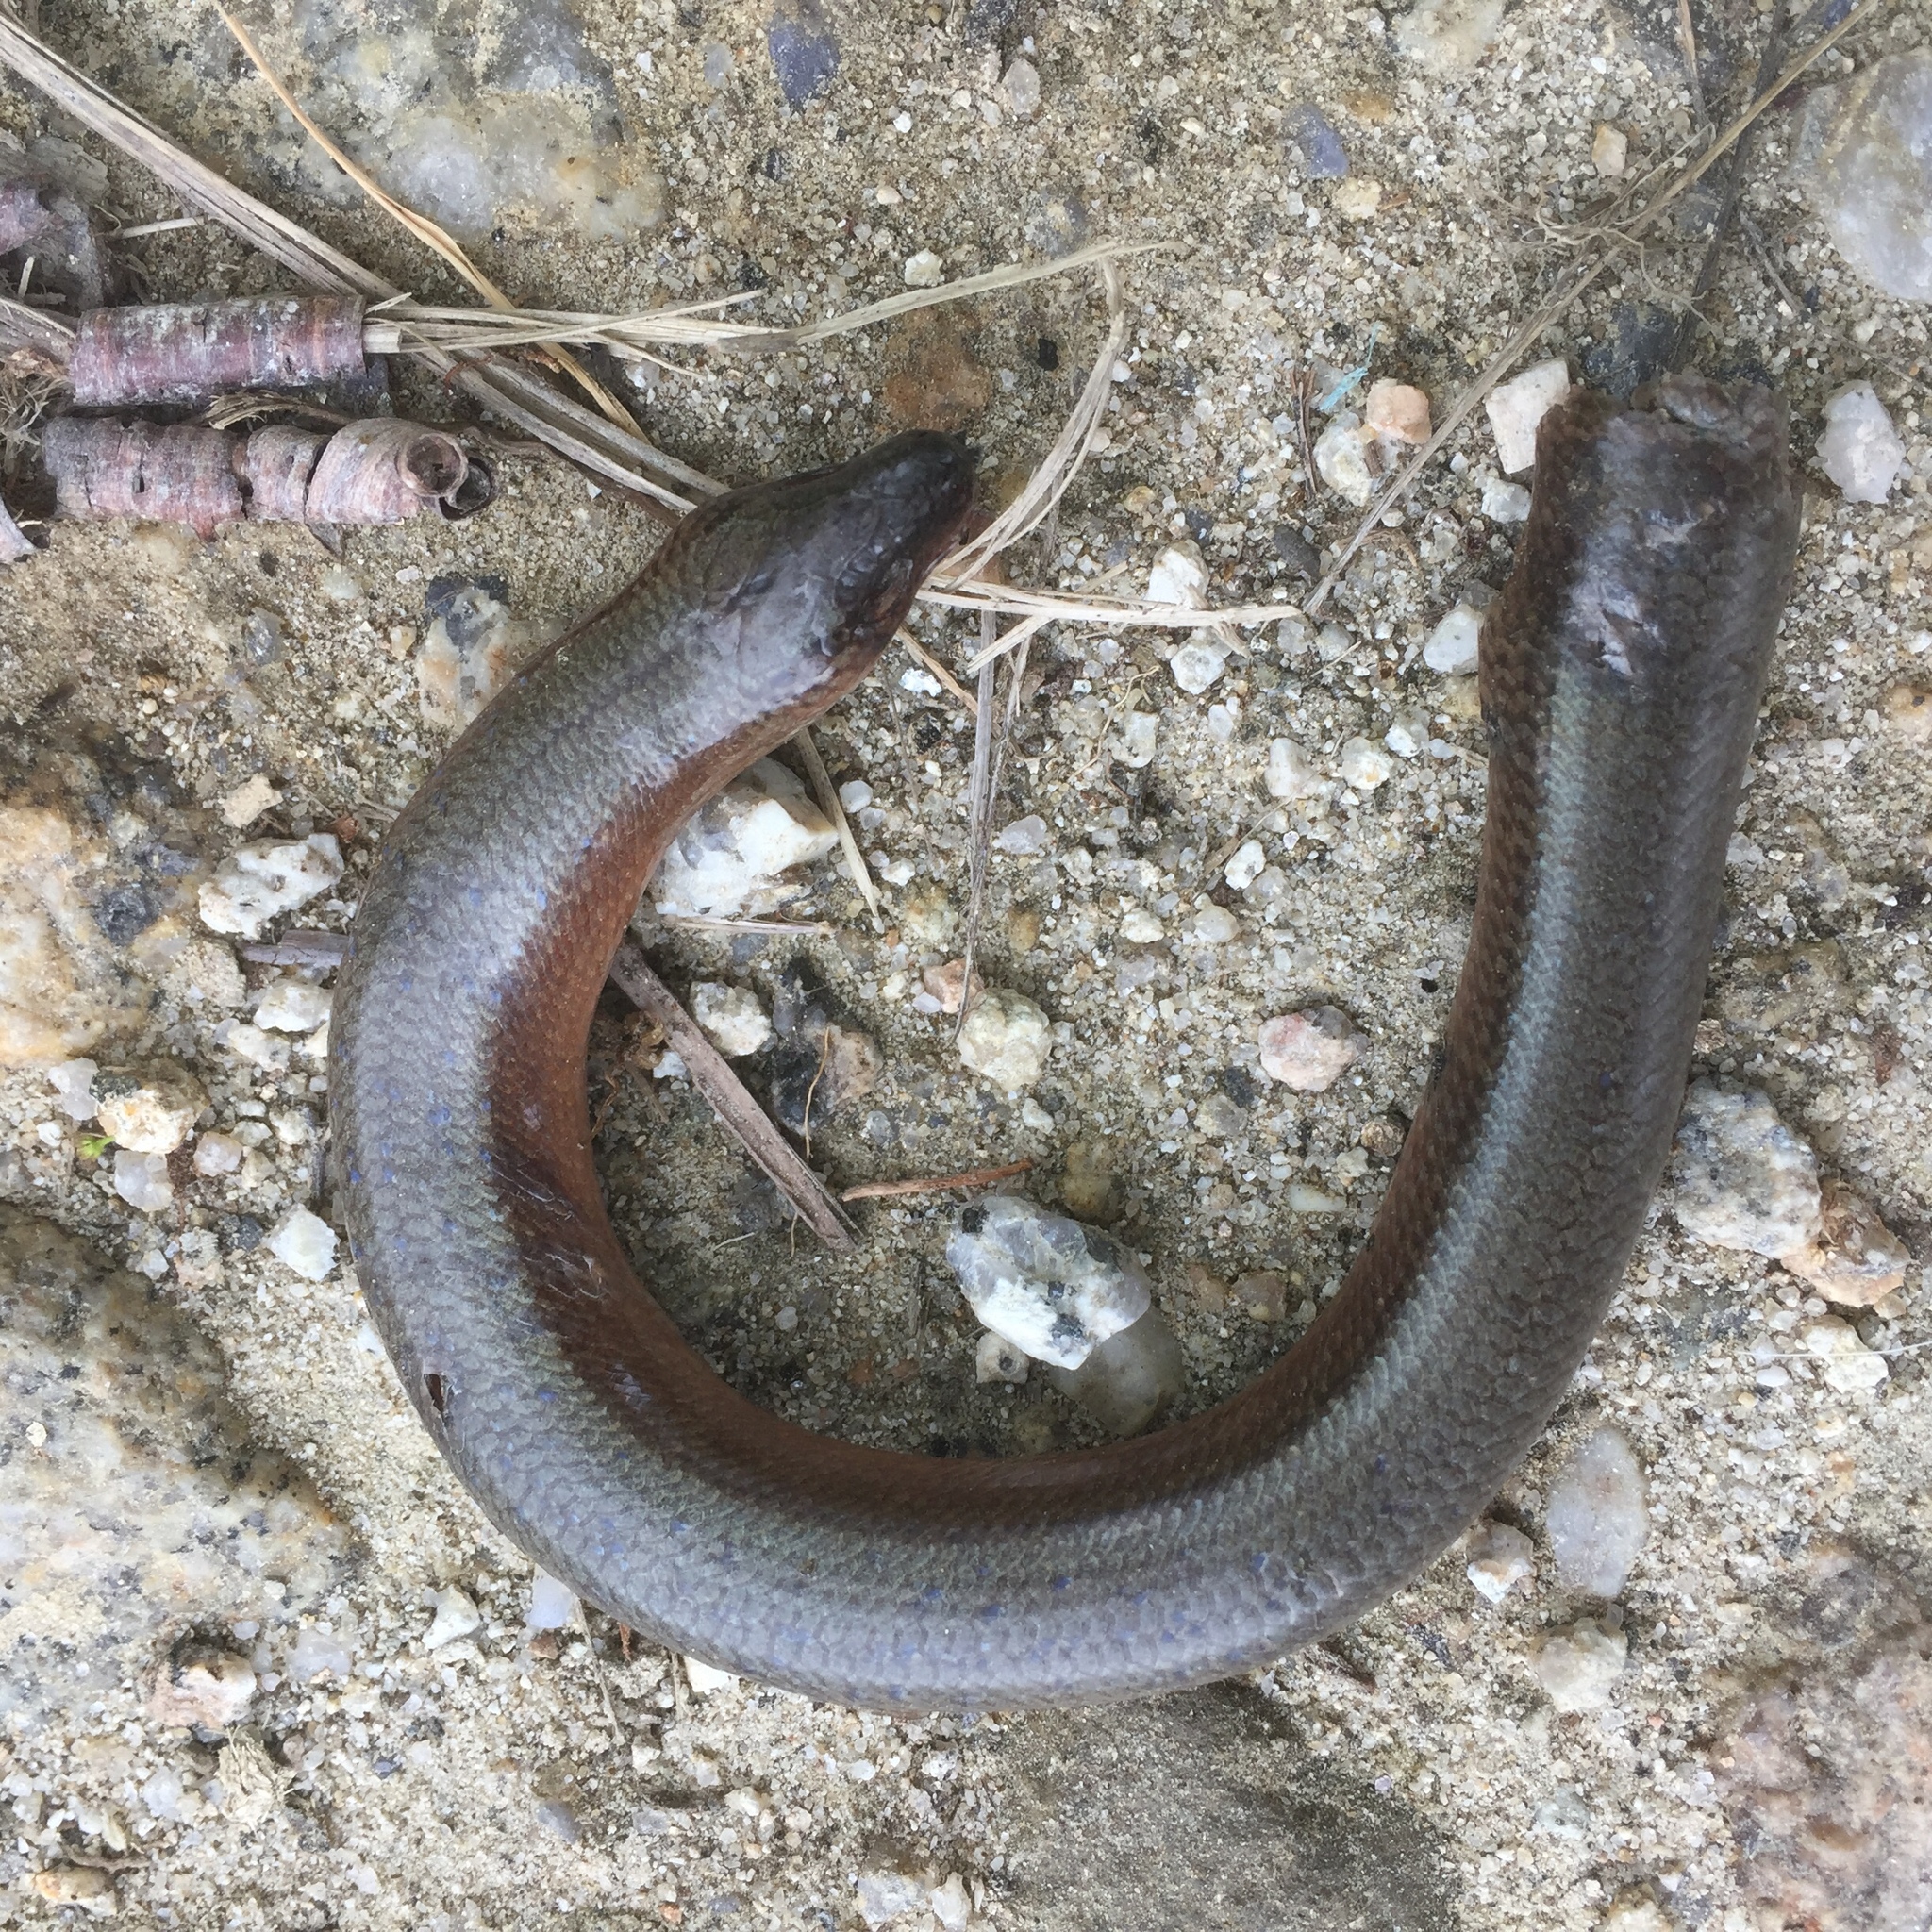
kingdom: Animalia
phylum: Chordata
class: Squamata
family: Anguidae
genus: Anguis
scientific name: Anguis fragilis
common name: Slow worm
